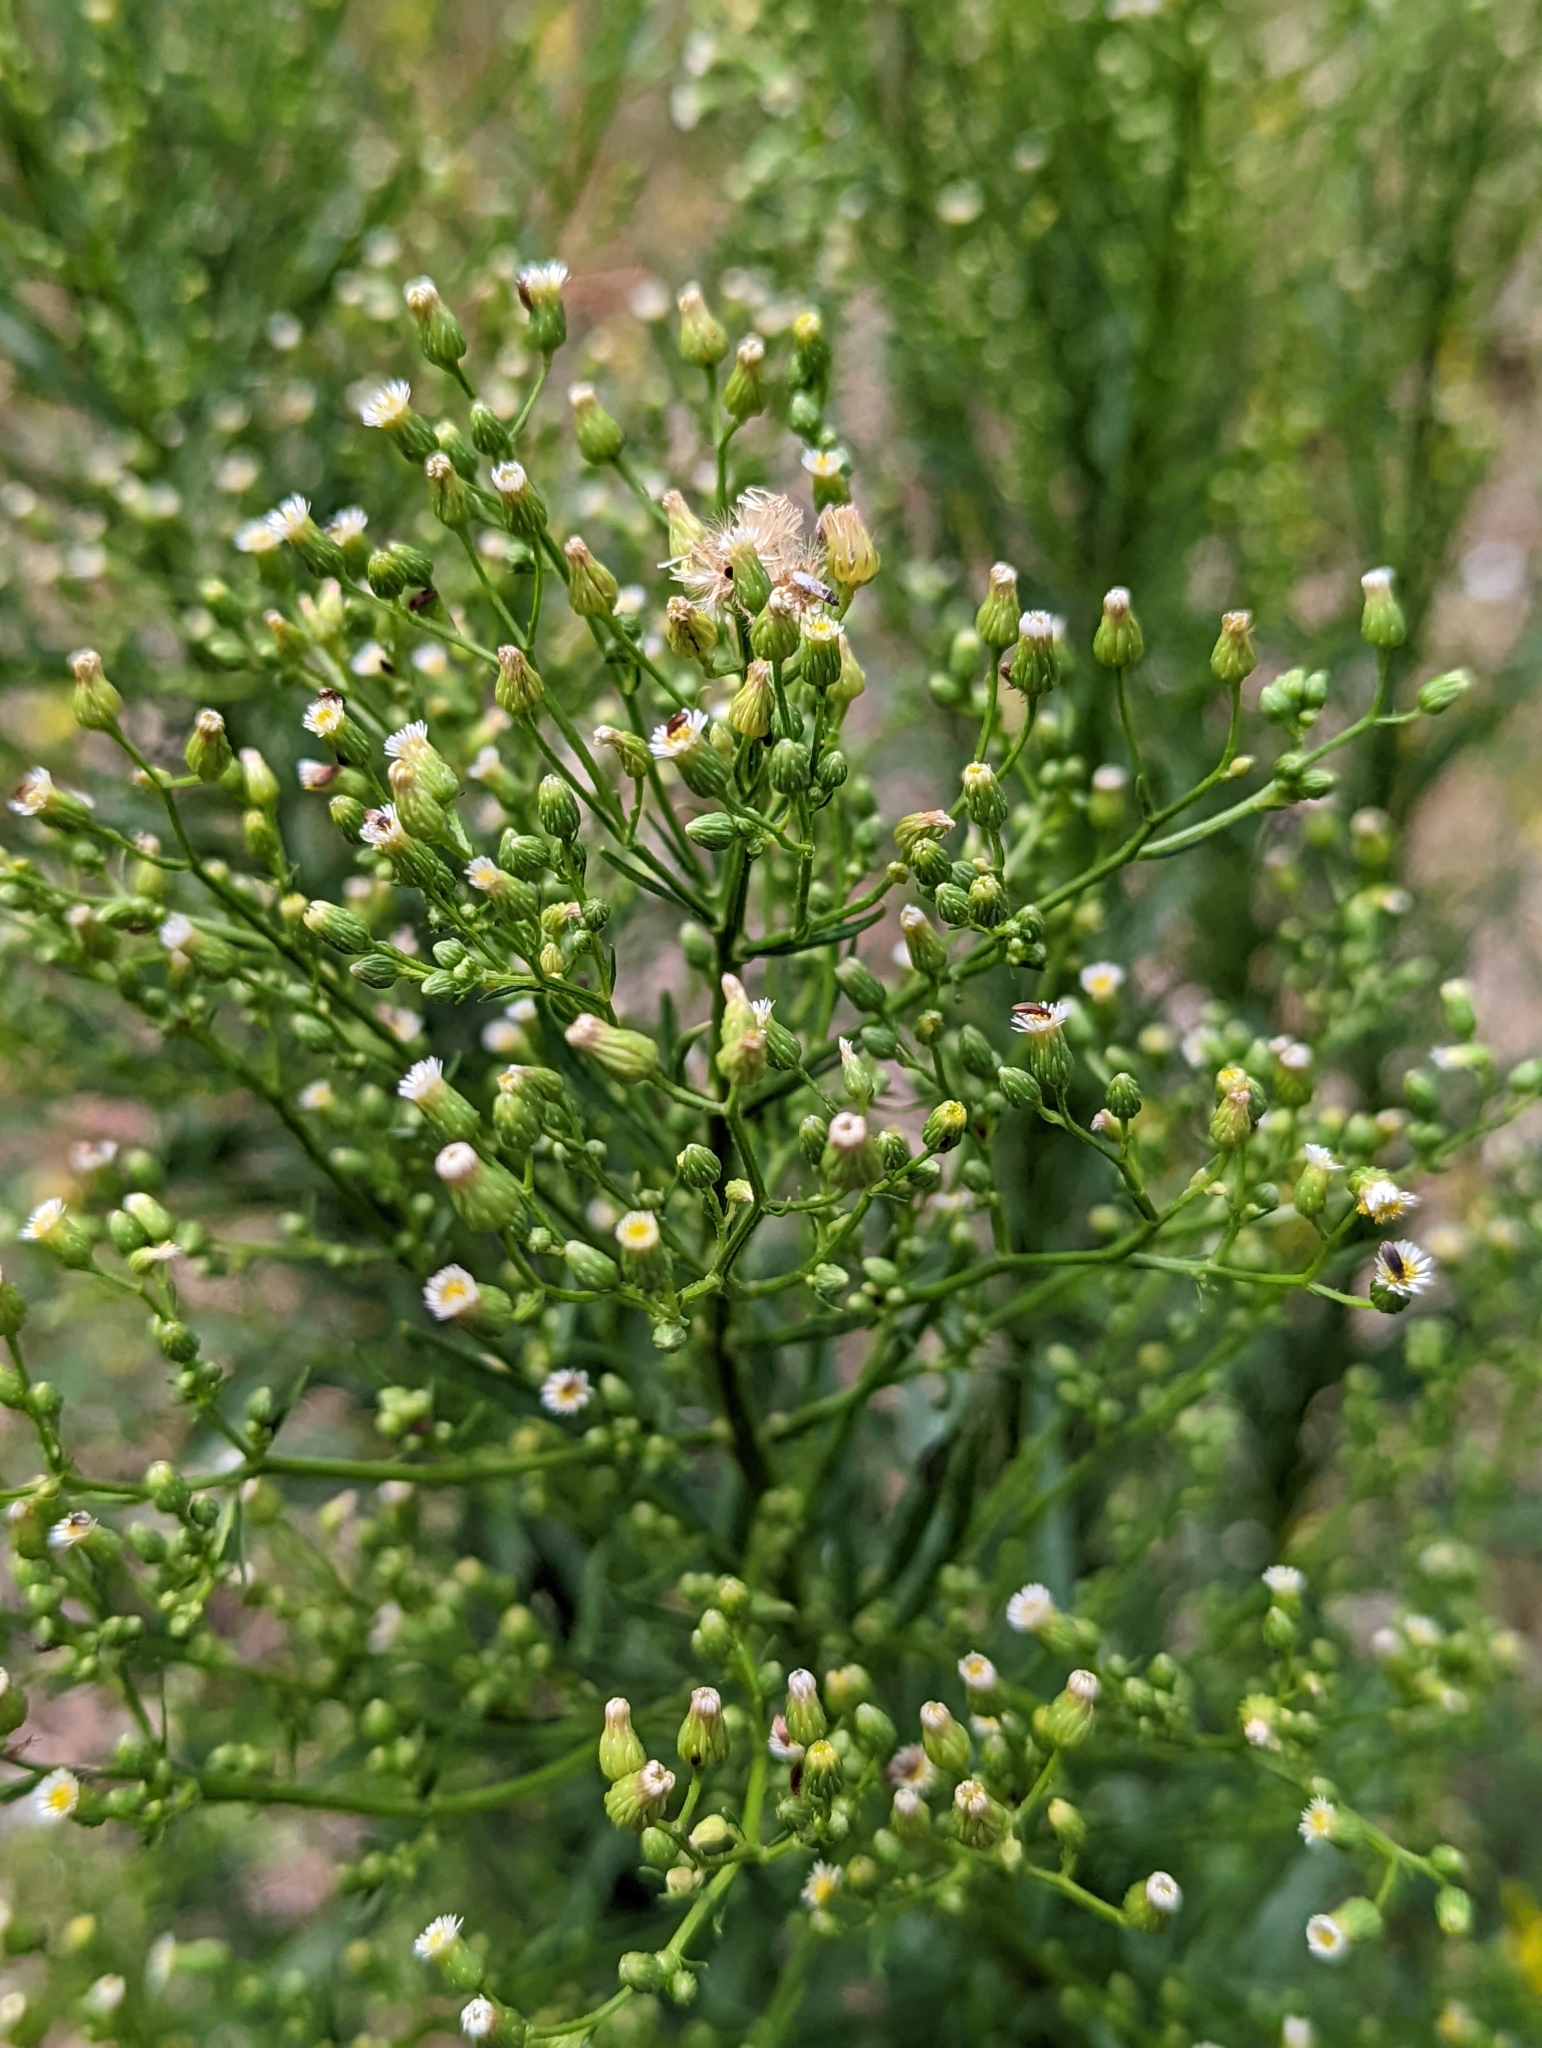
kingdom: Plantae
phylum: Tracheophyta
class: Magnoliopsida
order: Asterales
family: Asteraceae
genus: Erigeron
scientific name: Erigeron canadensis
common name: Canadian fleabane
